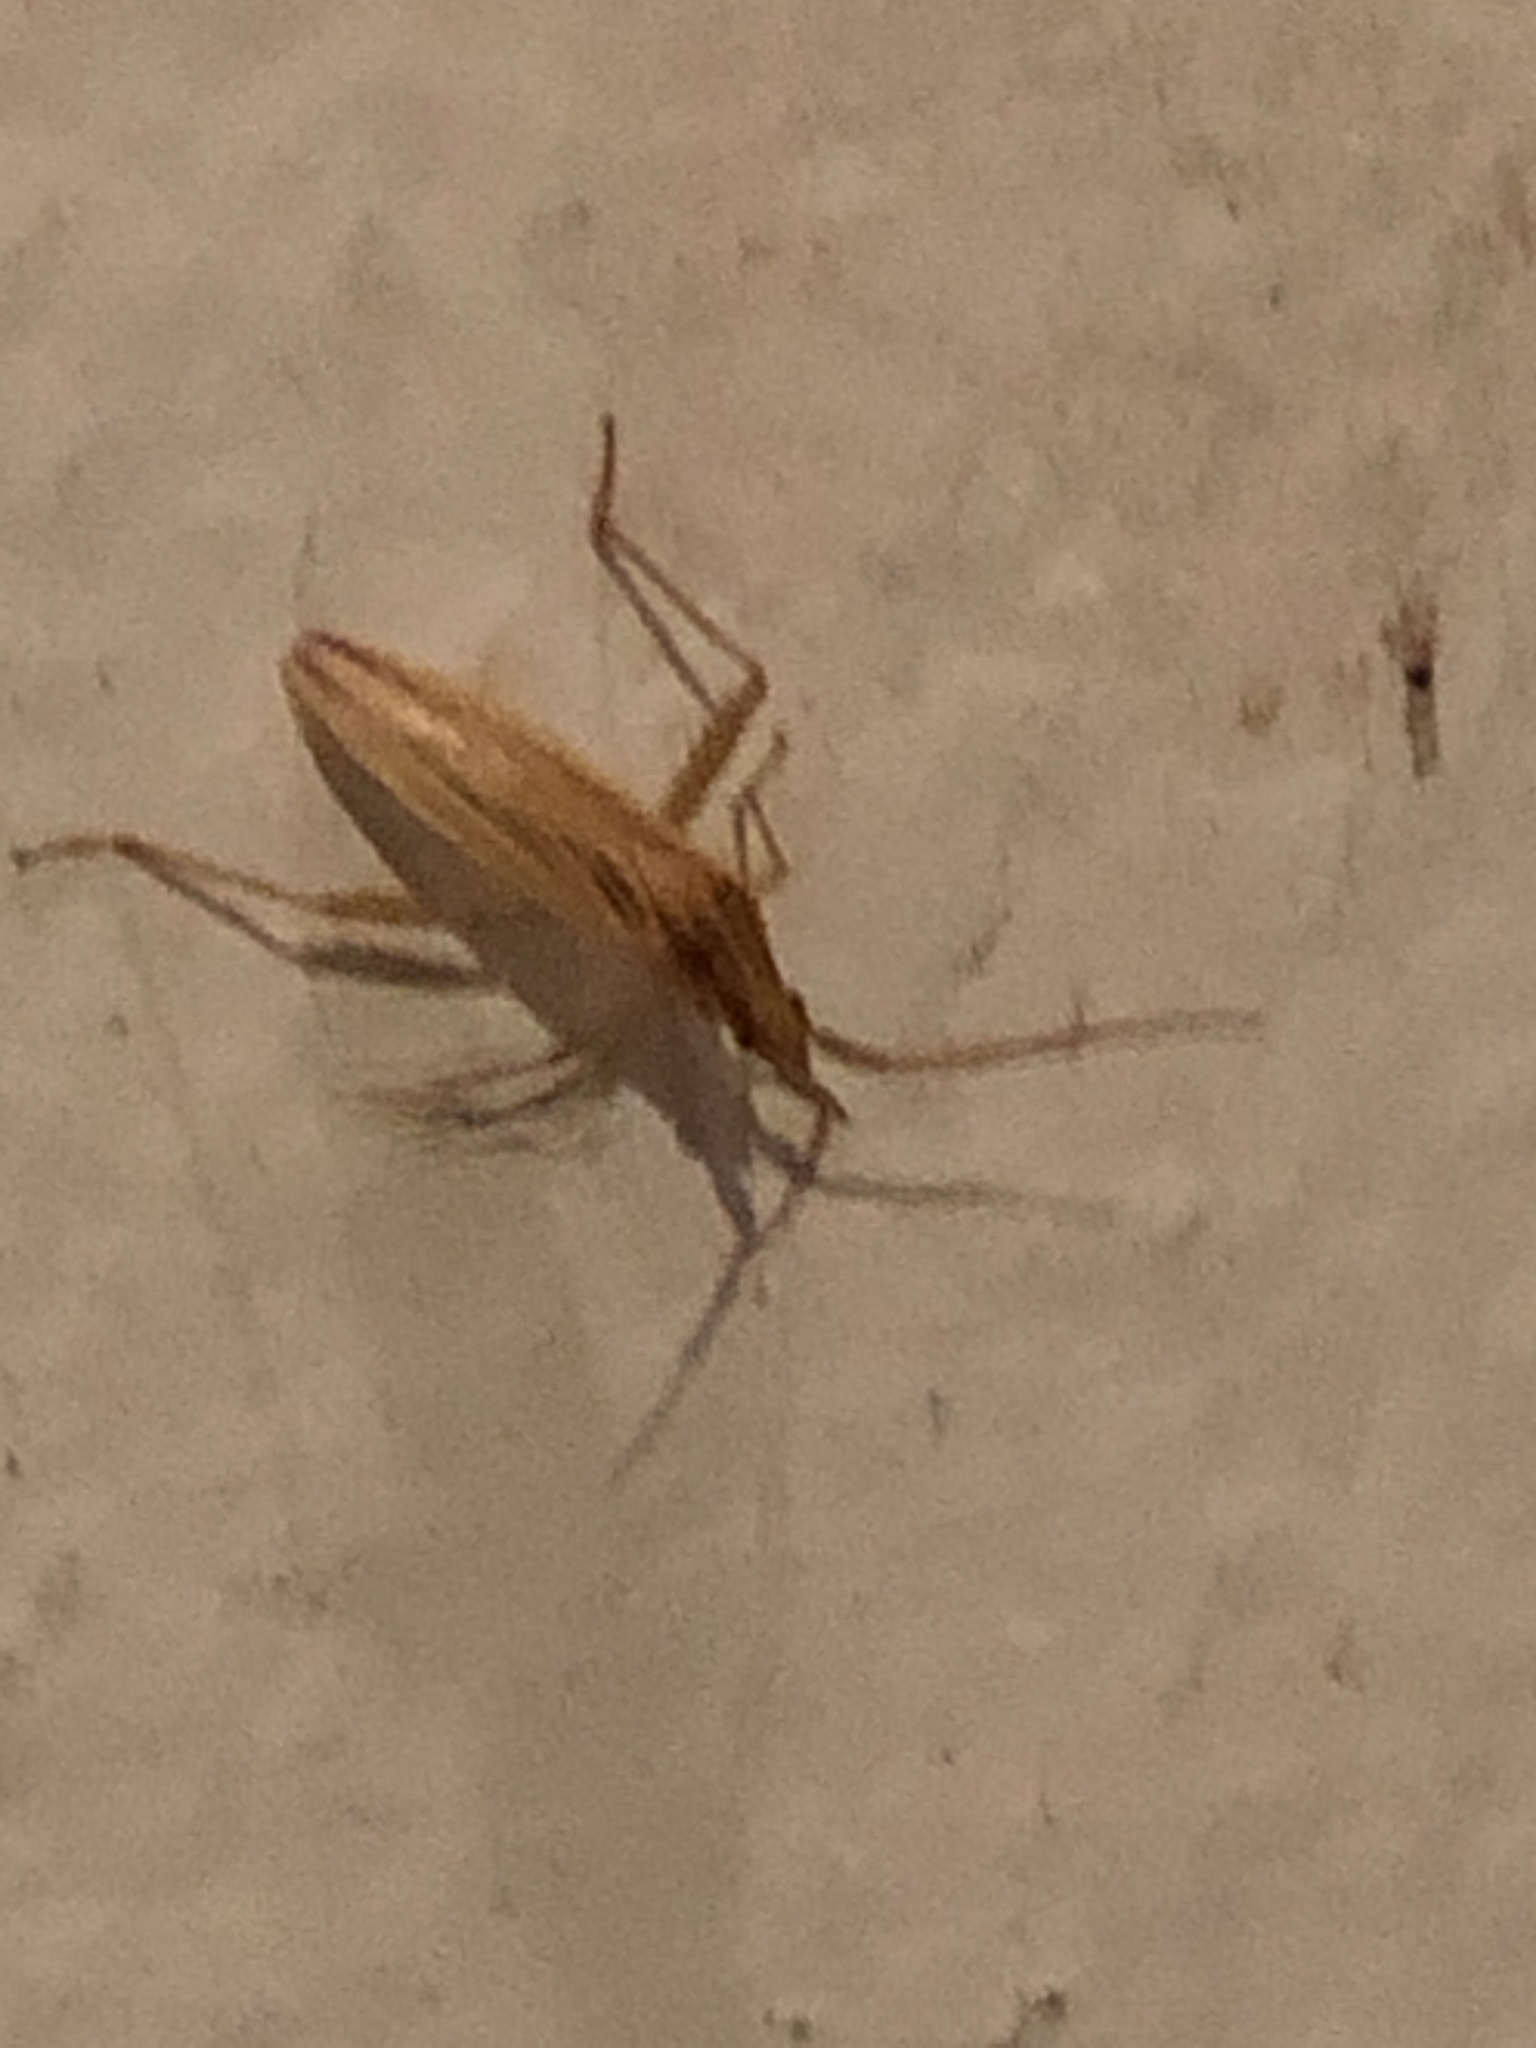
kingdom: Animalia
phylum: Arthropoda
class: Insecta
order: Hemiptera
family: Miridae
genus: Stenodema
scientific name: Stenodema trispinosa
